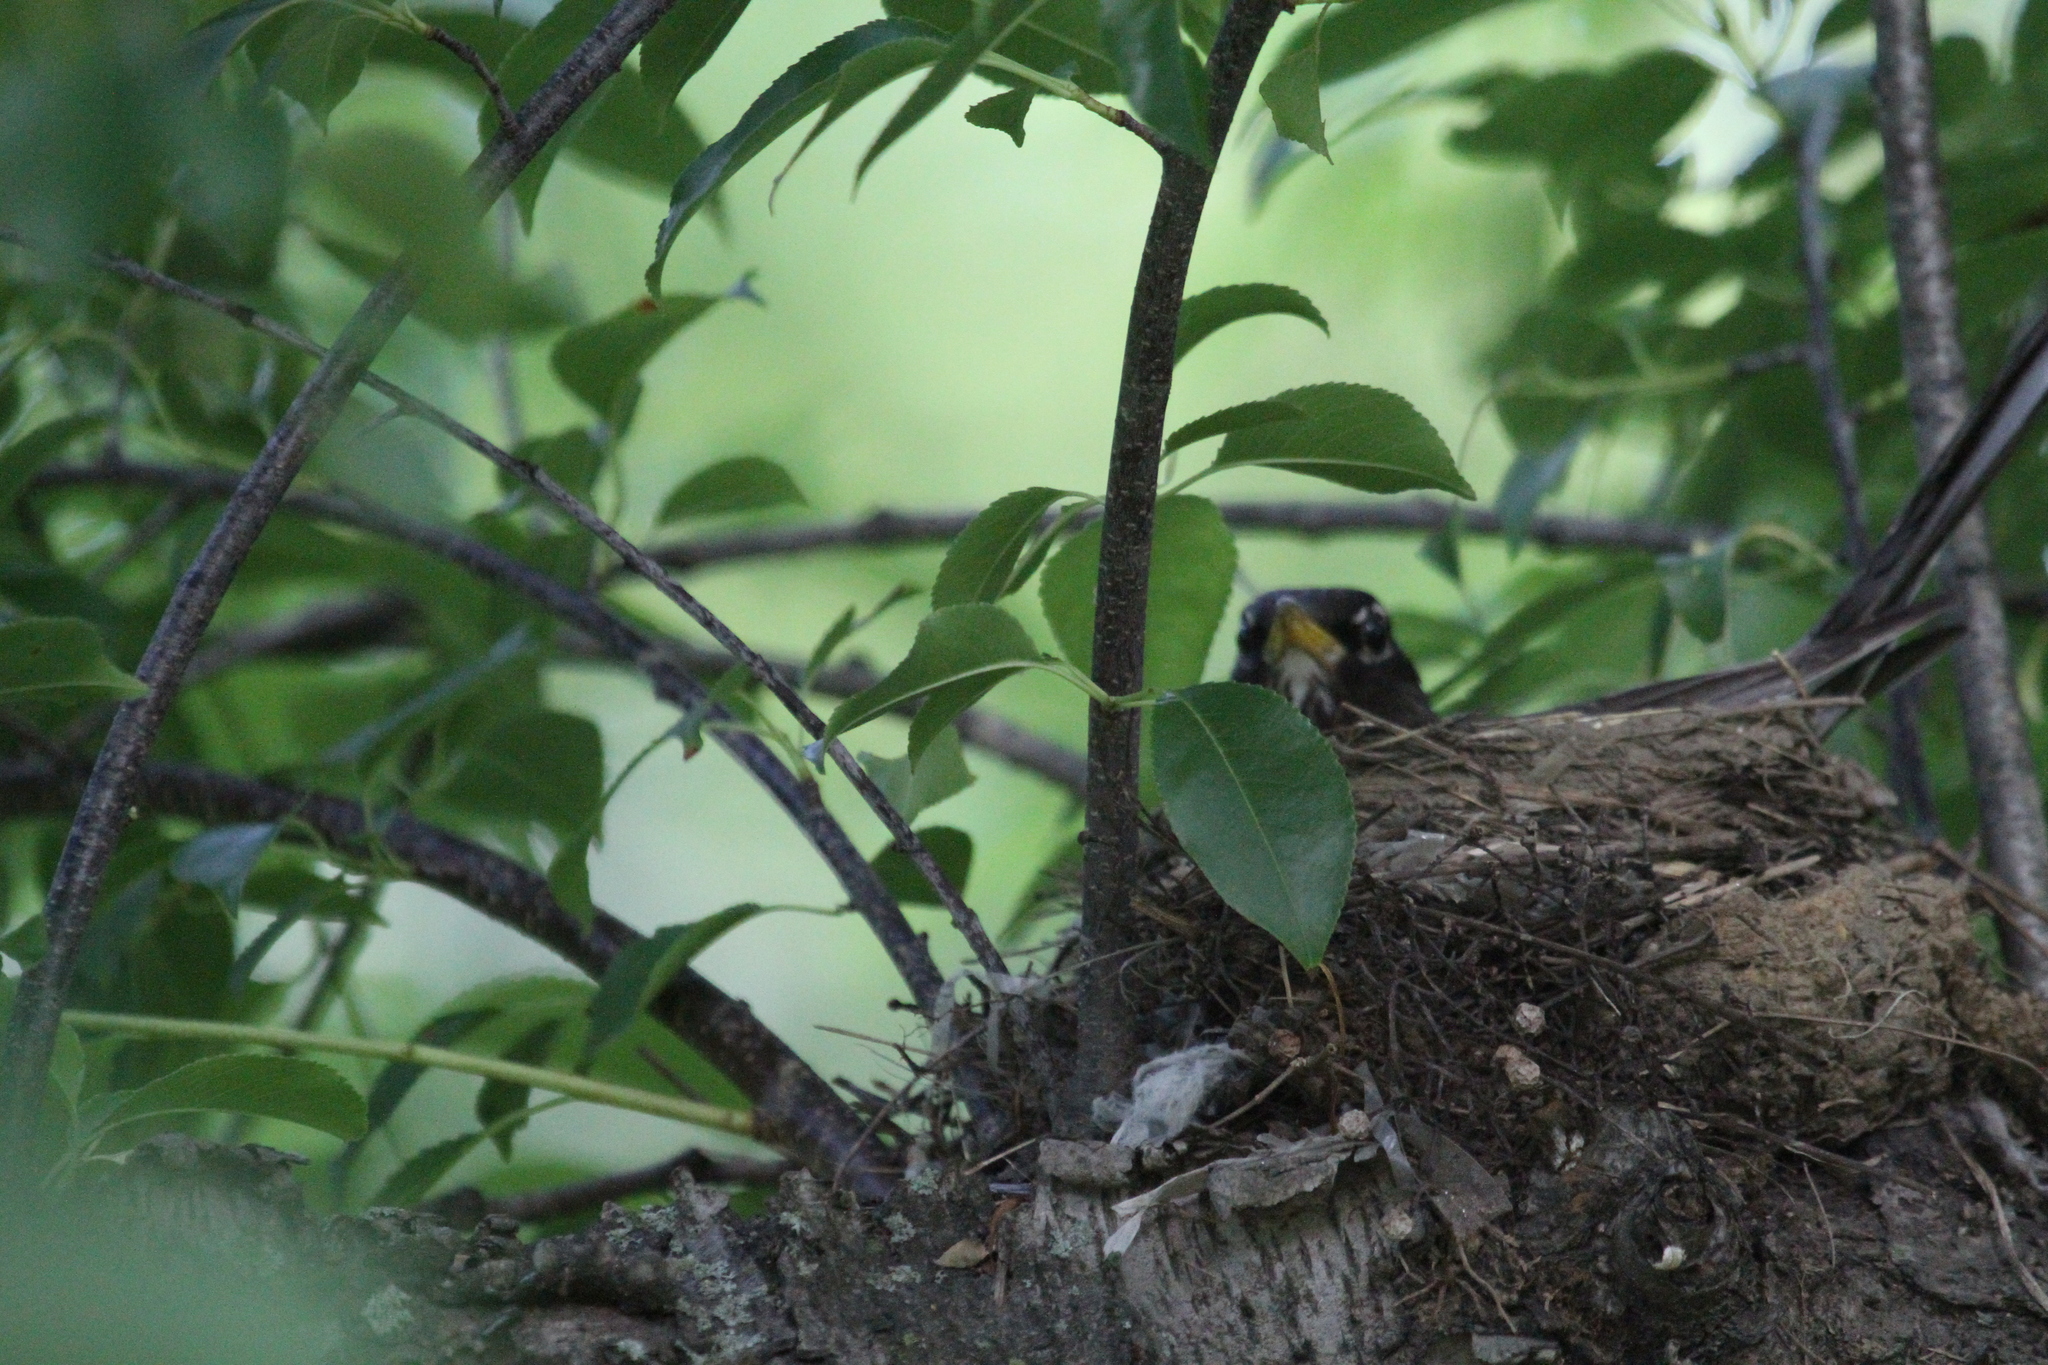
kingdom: Animalia
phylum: Chordata
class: Aves
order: Passeriformes
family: Turdidae
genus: Turdus
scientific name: Turdus migratorius
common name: American robin
